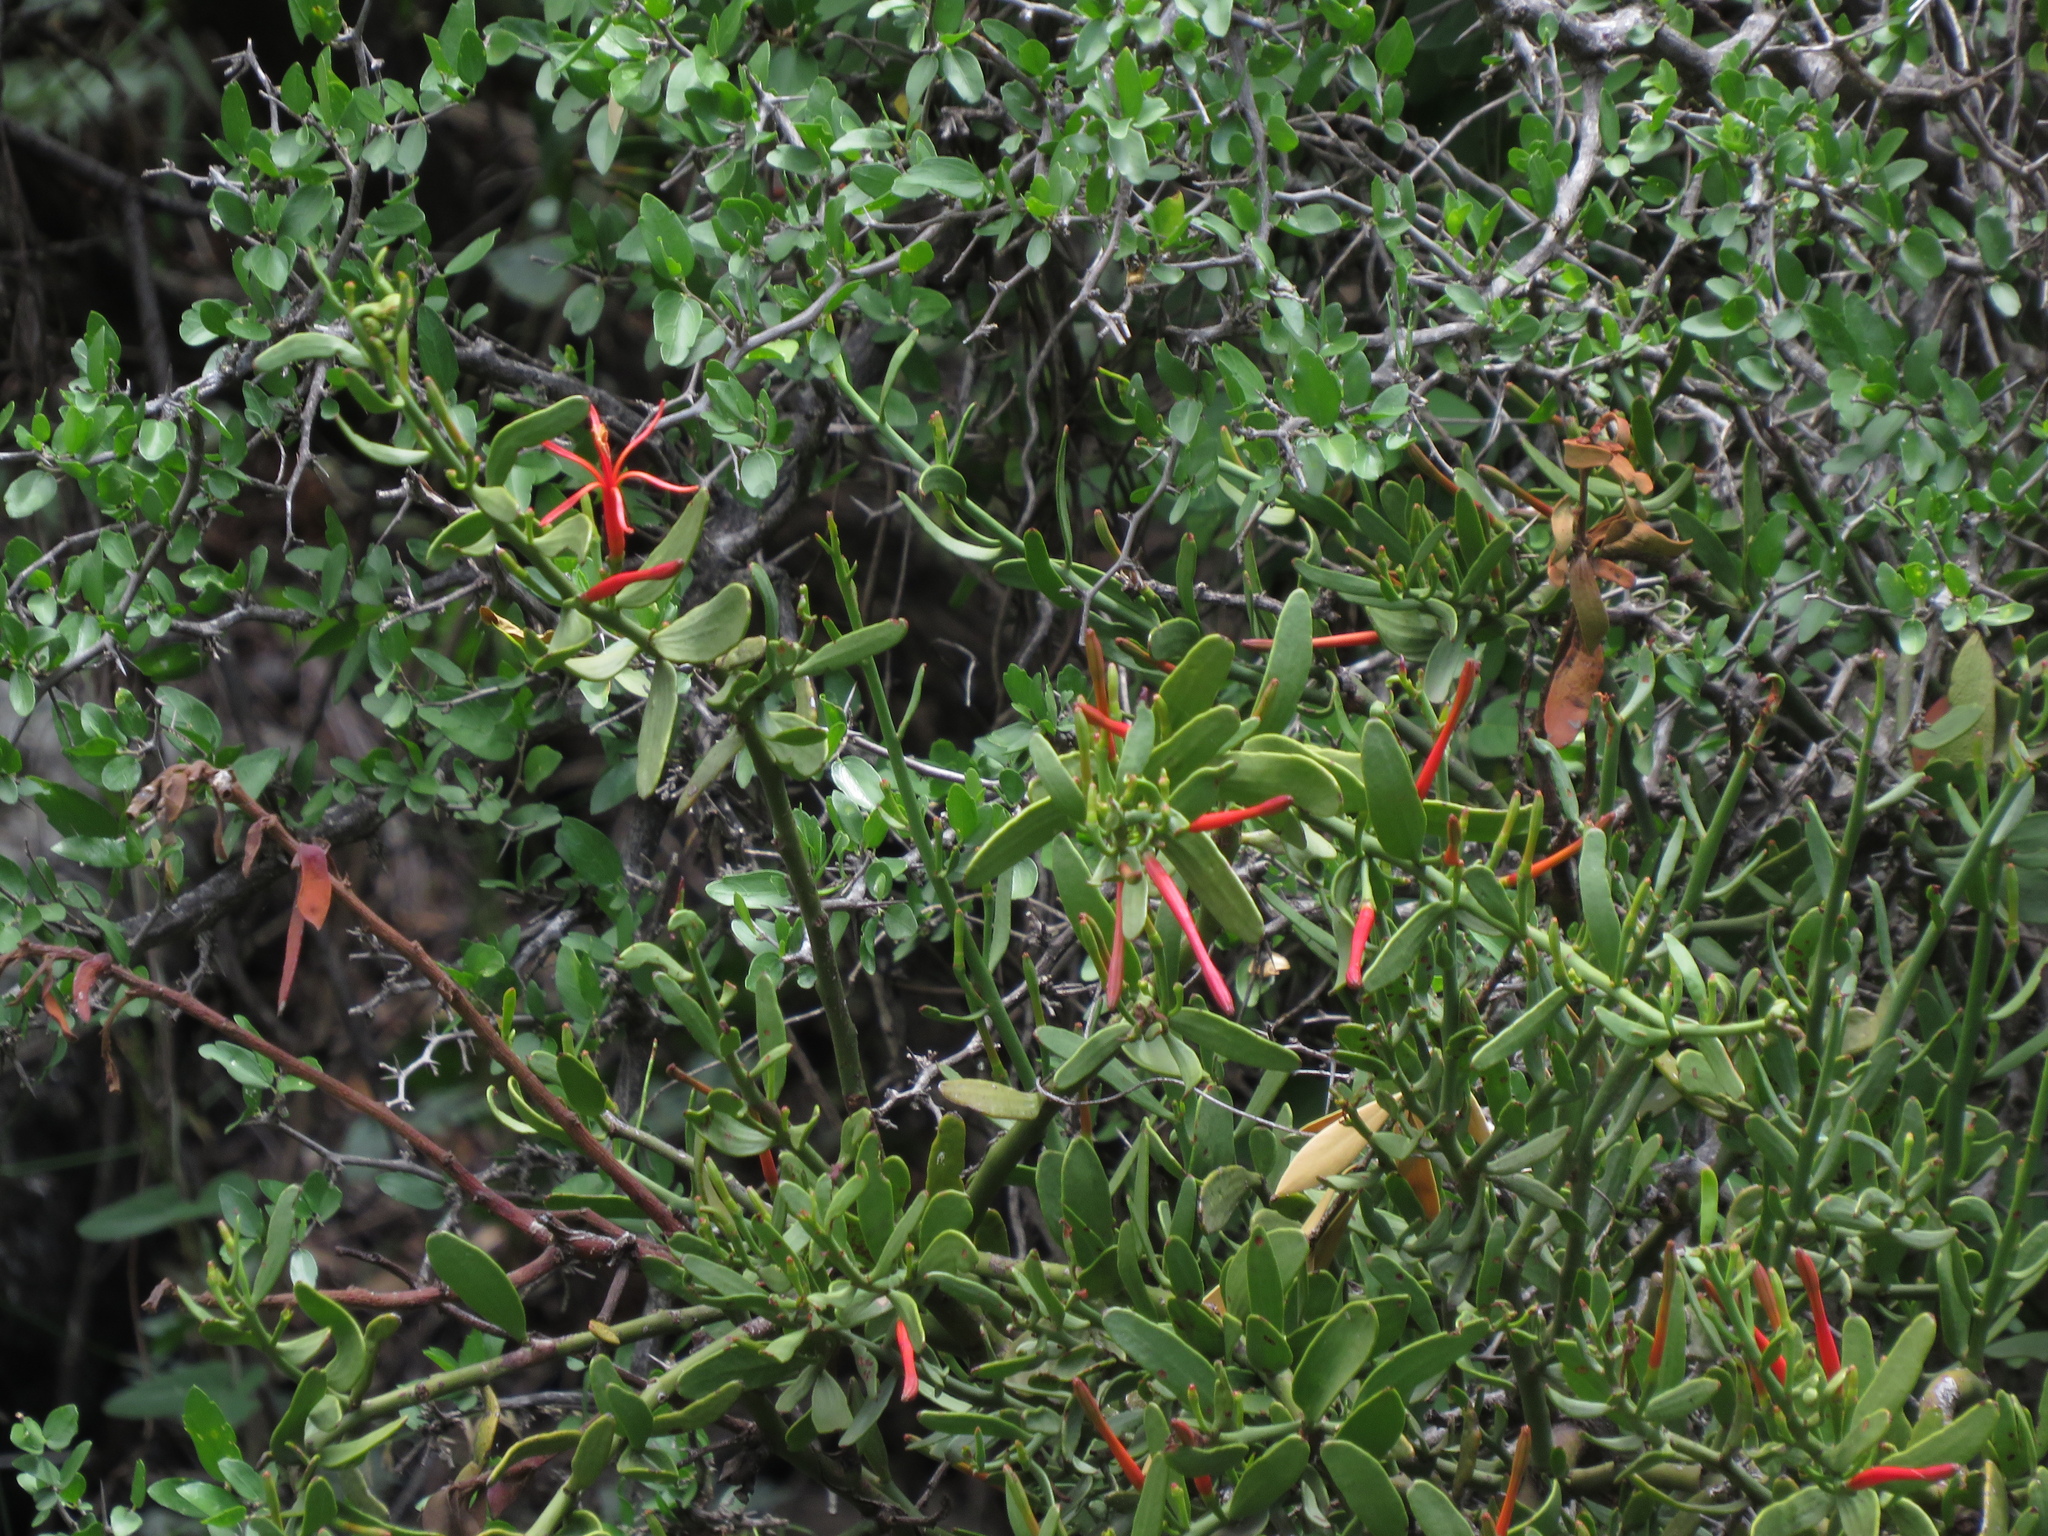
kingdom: Plantae
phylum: Tracheophyta
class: Magnoliopsida
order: Santalales
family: Loranthaceae
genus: Ligaria
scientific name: Ligaria cuneifolia
